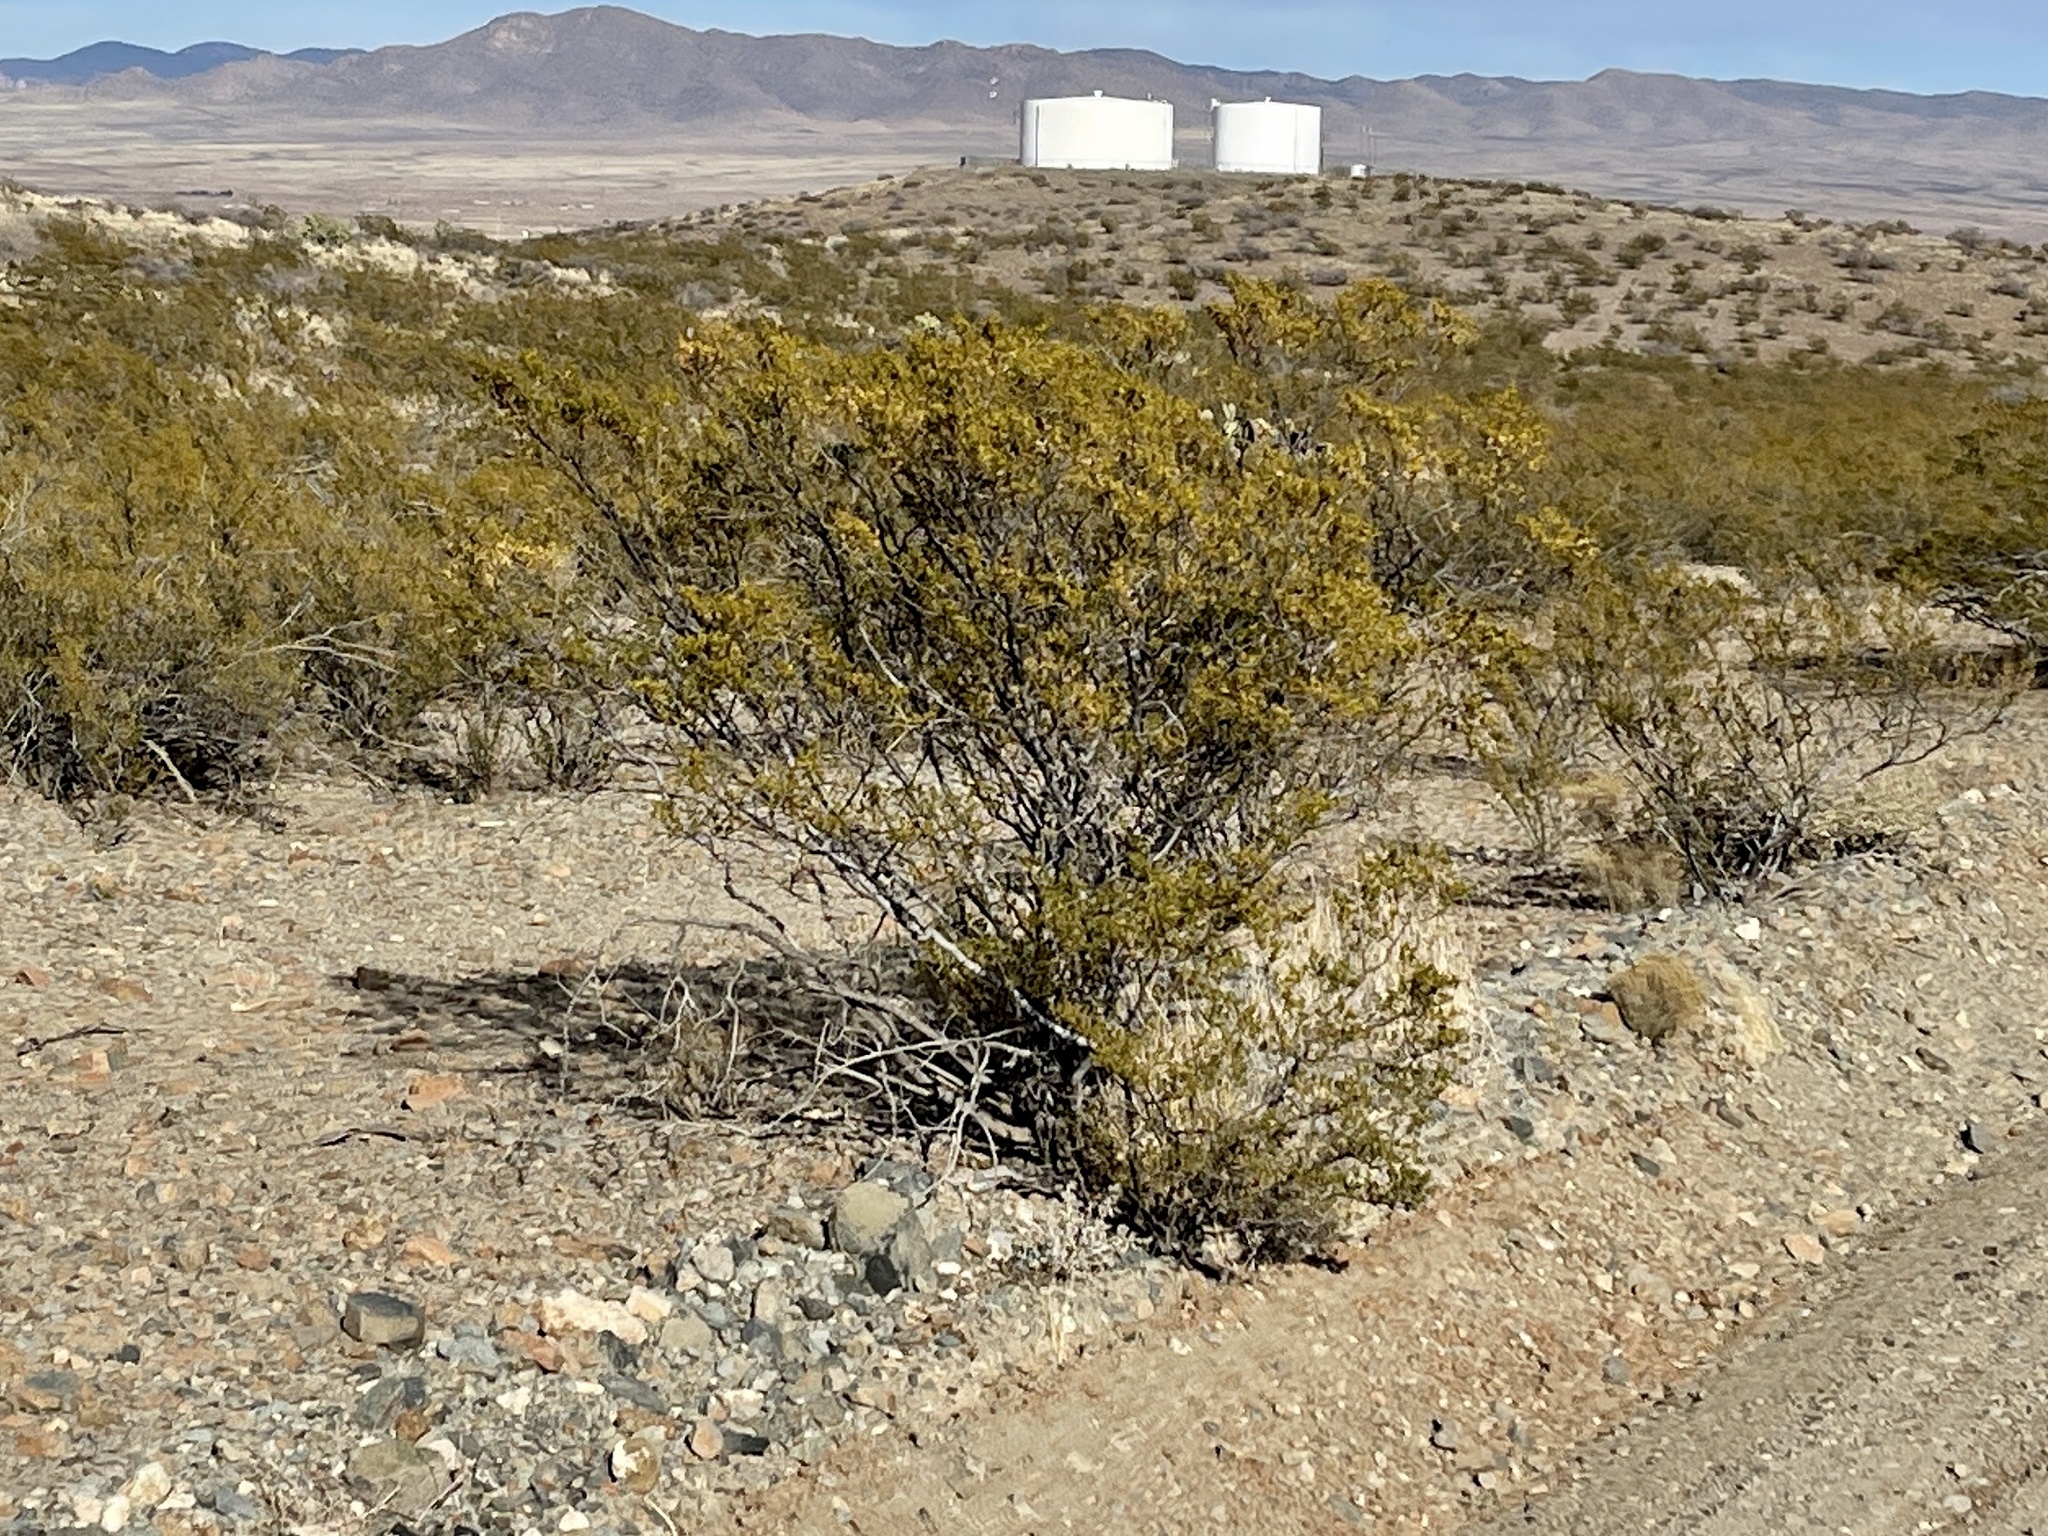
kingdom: Plantae
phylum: Tracheophyta
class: Magnoliopsida
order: Zygophyllales
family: Zygophyllaceae
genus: Larrea
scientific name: Larrea tridentata
